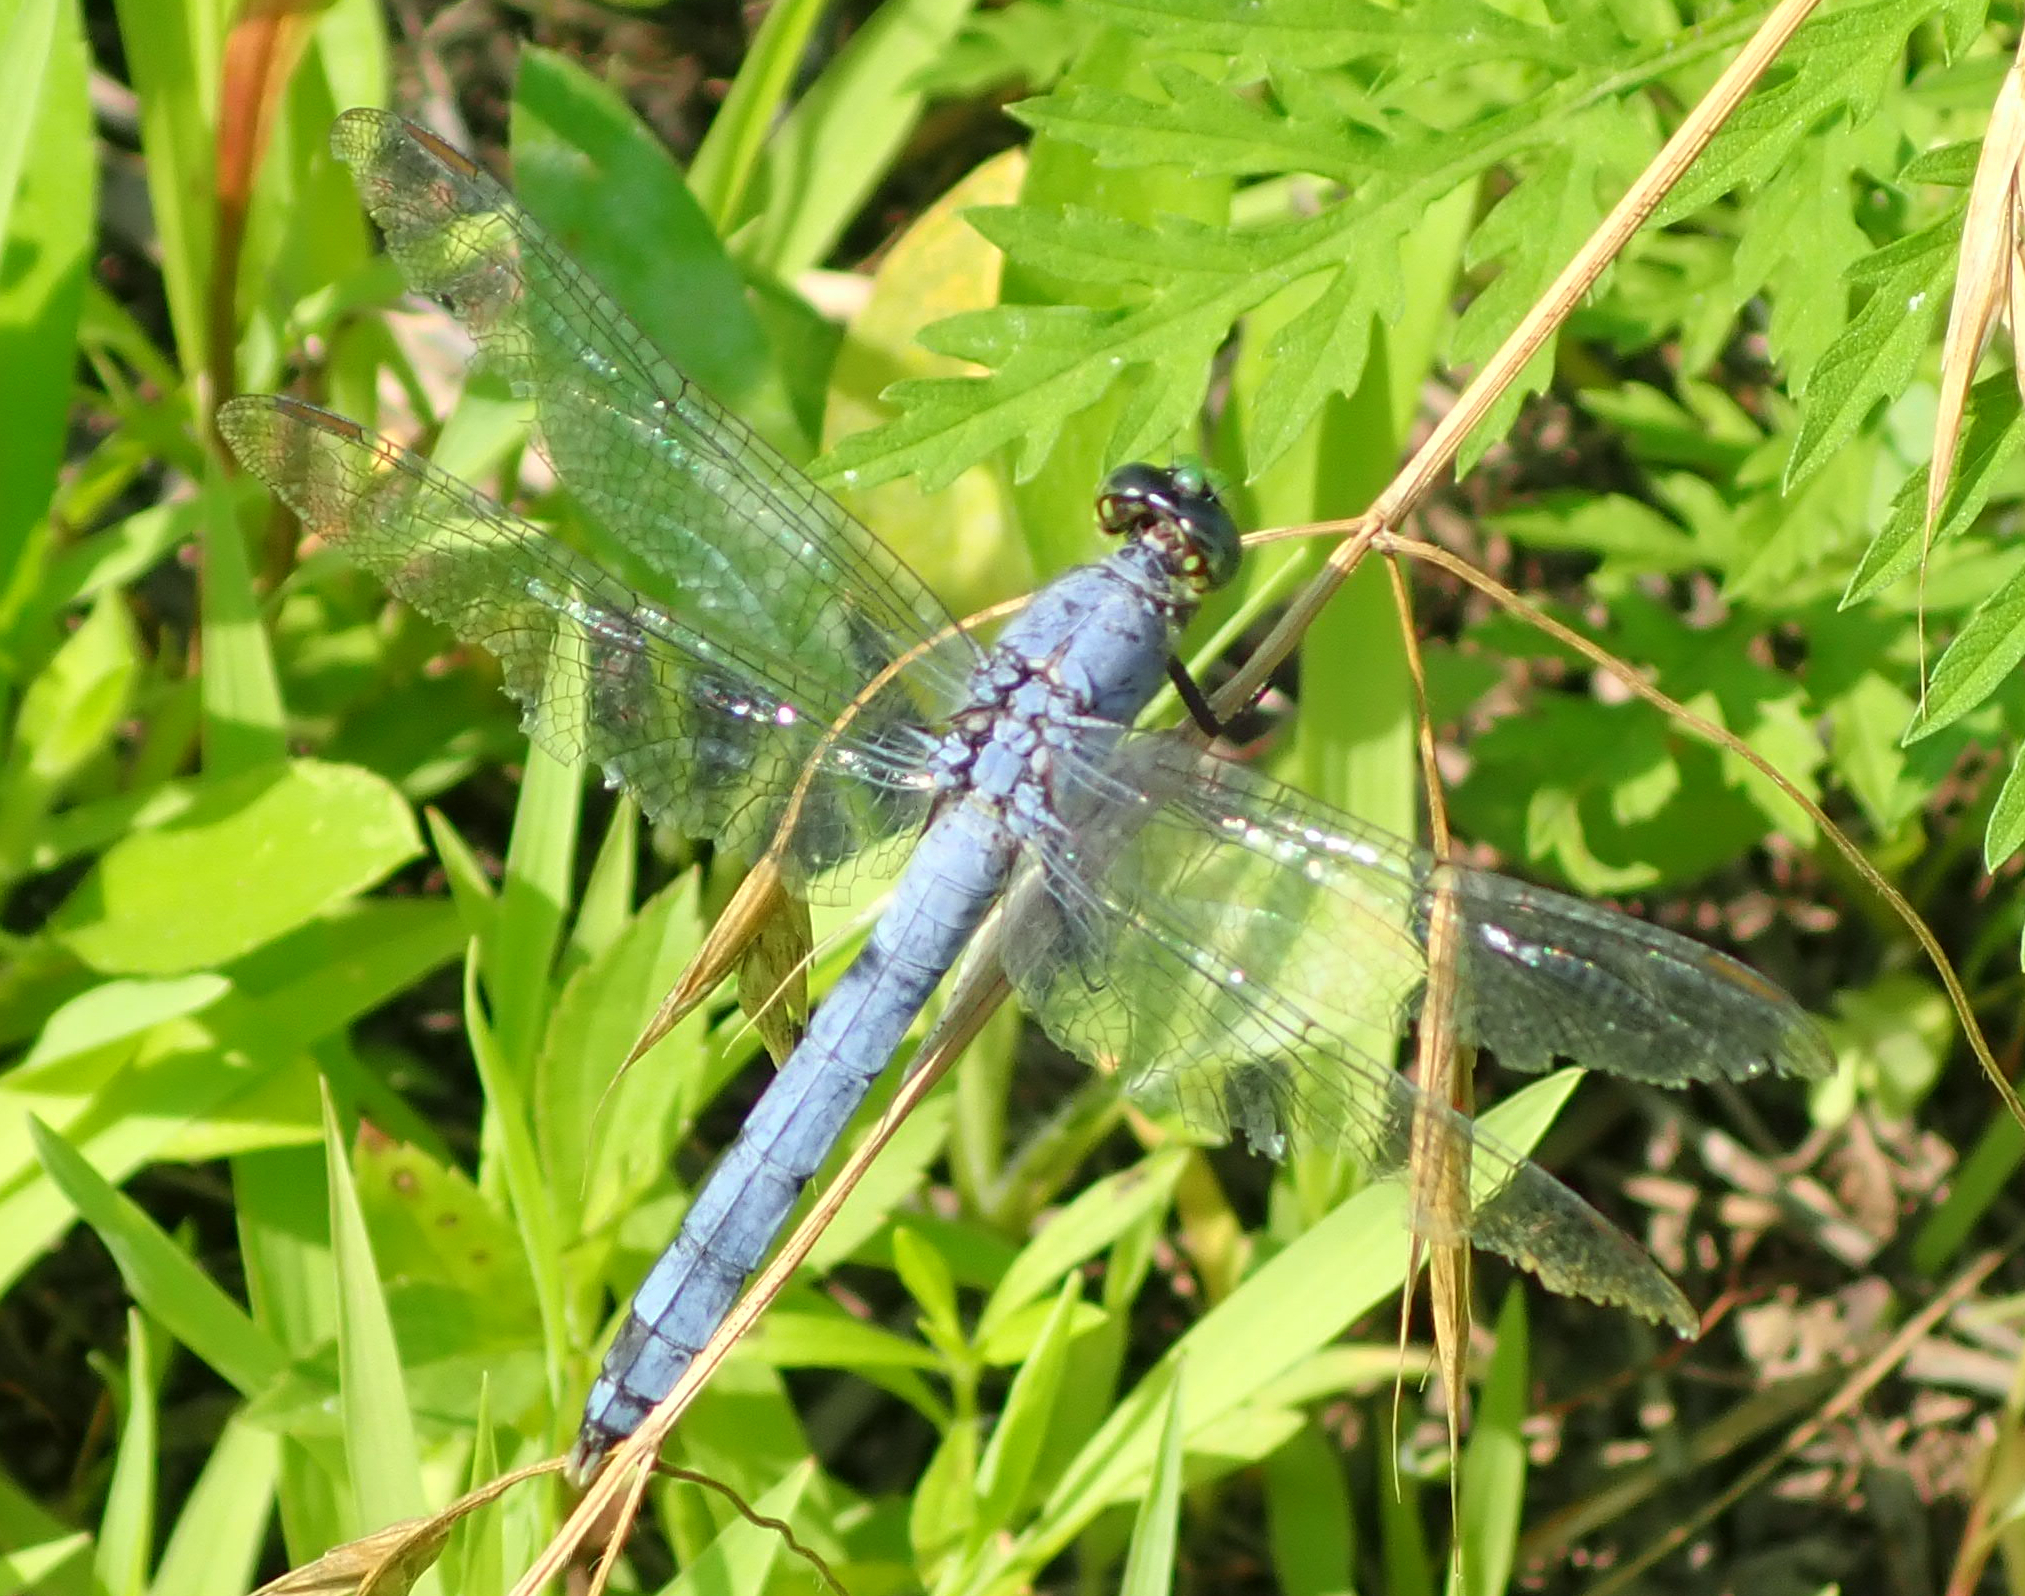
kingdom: Animalia
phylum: Arthropoda
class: Insecta
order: Odonata
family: Libellulidae
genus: Erythemis
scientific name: Erythemis simplicicollis
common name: Eastern pondhawk
